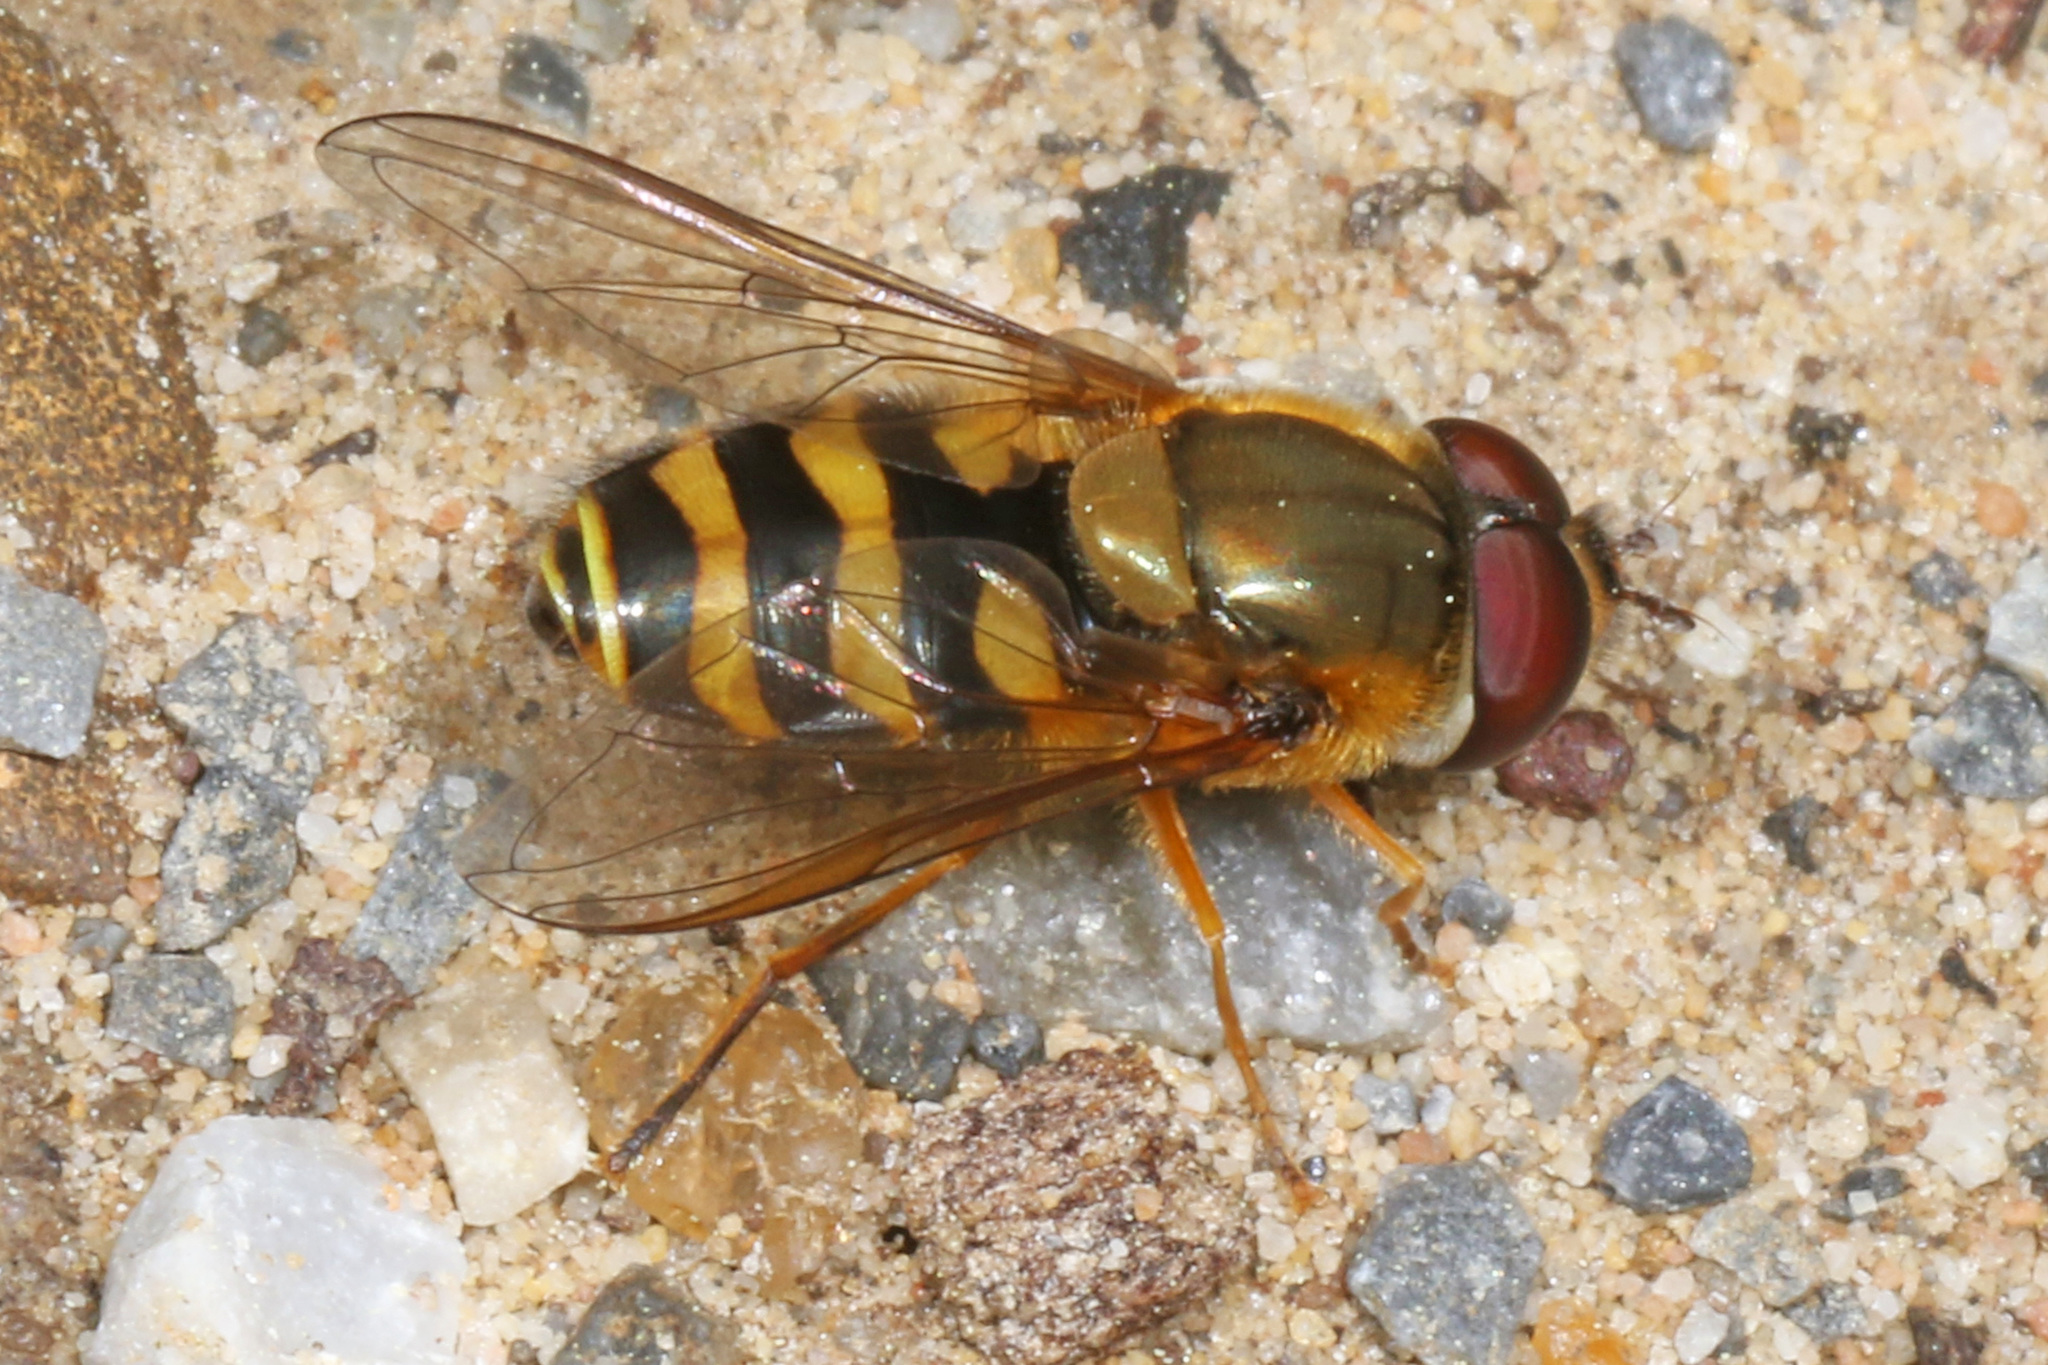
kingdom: Animalia
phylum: Arthropoda
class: Insecta
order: Diptera
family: Syrphidae
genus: Syrphus
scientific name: Syrphus
